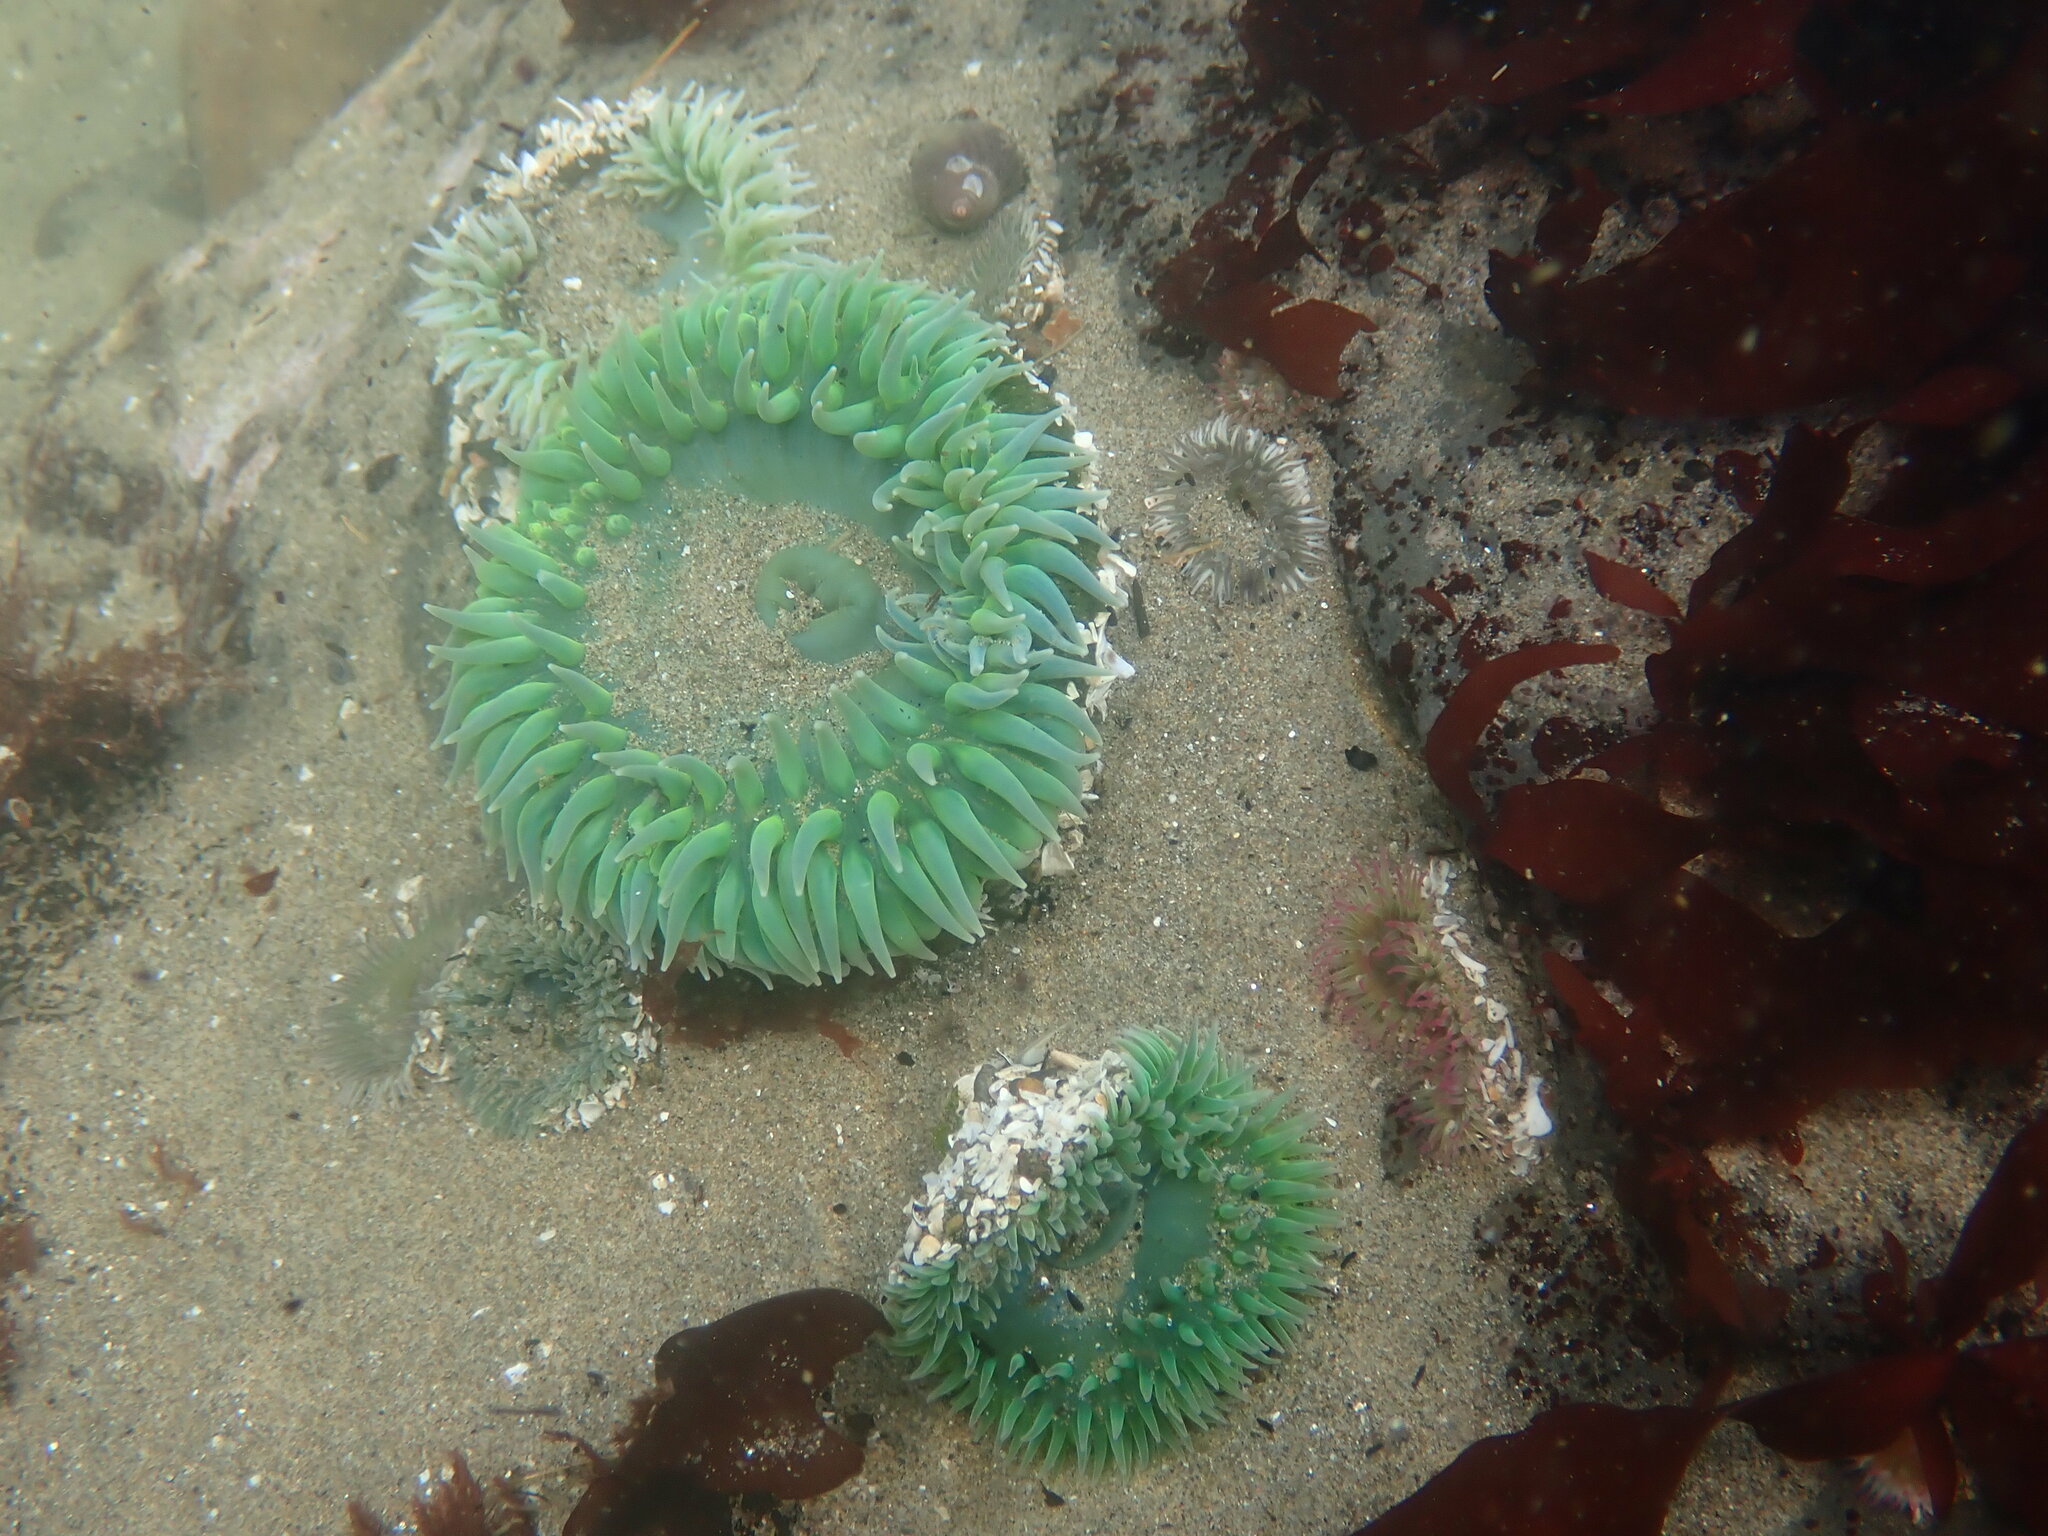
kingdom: Animalia
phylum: Cnidaria
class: Anthozoa
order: Actiniaria
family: Actiniidae
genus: Anthopleura
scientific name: Anthopleura xanthogrammica
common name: Giant green anemone
